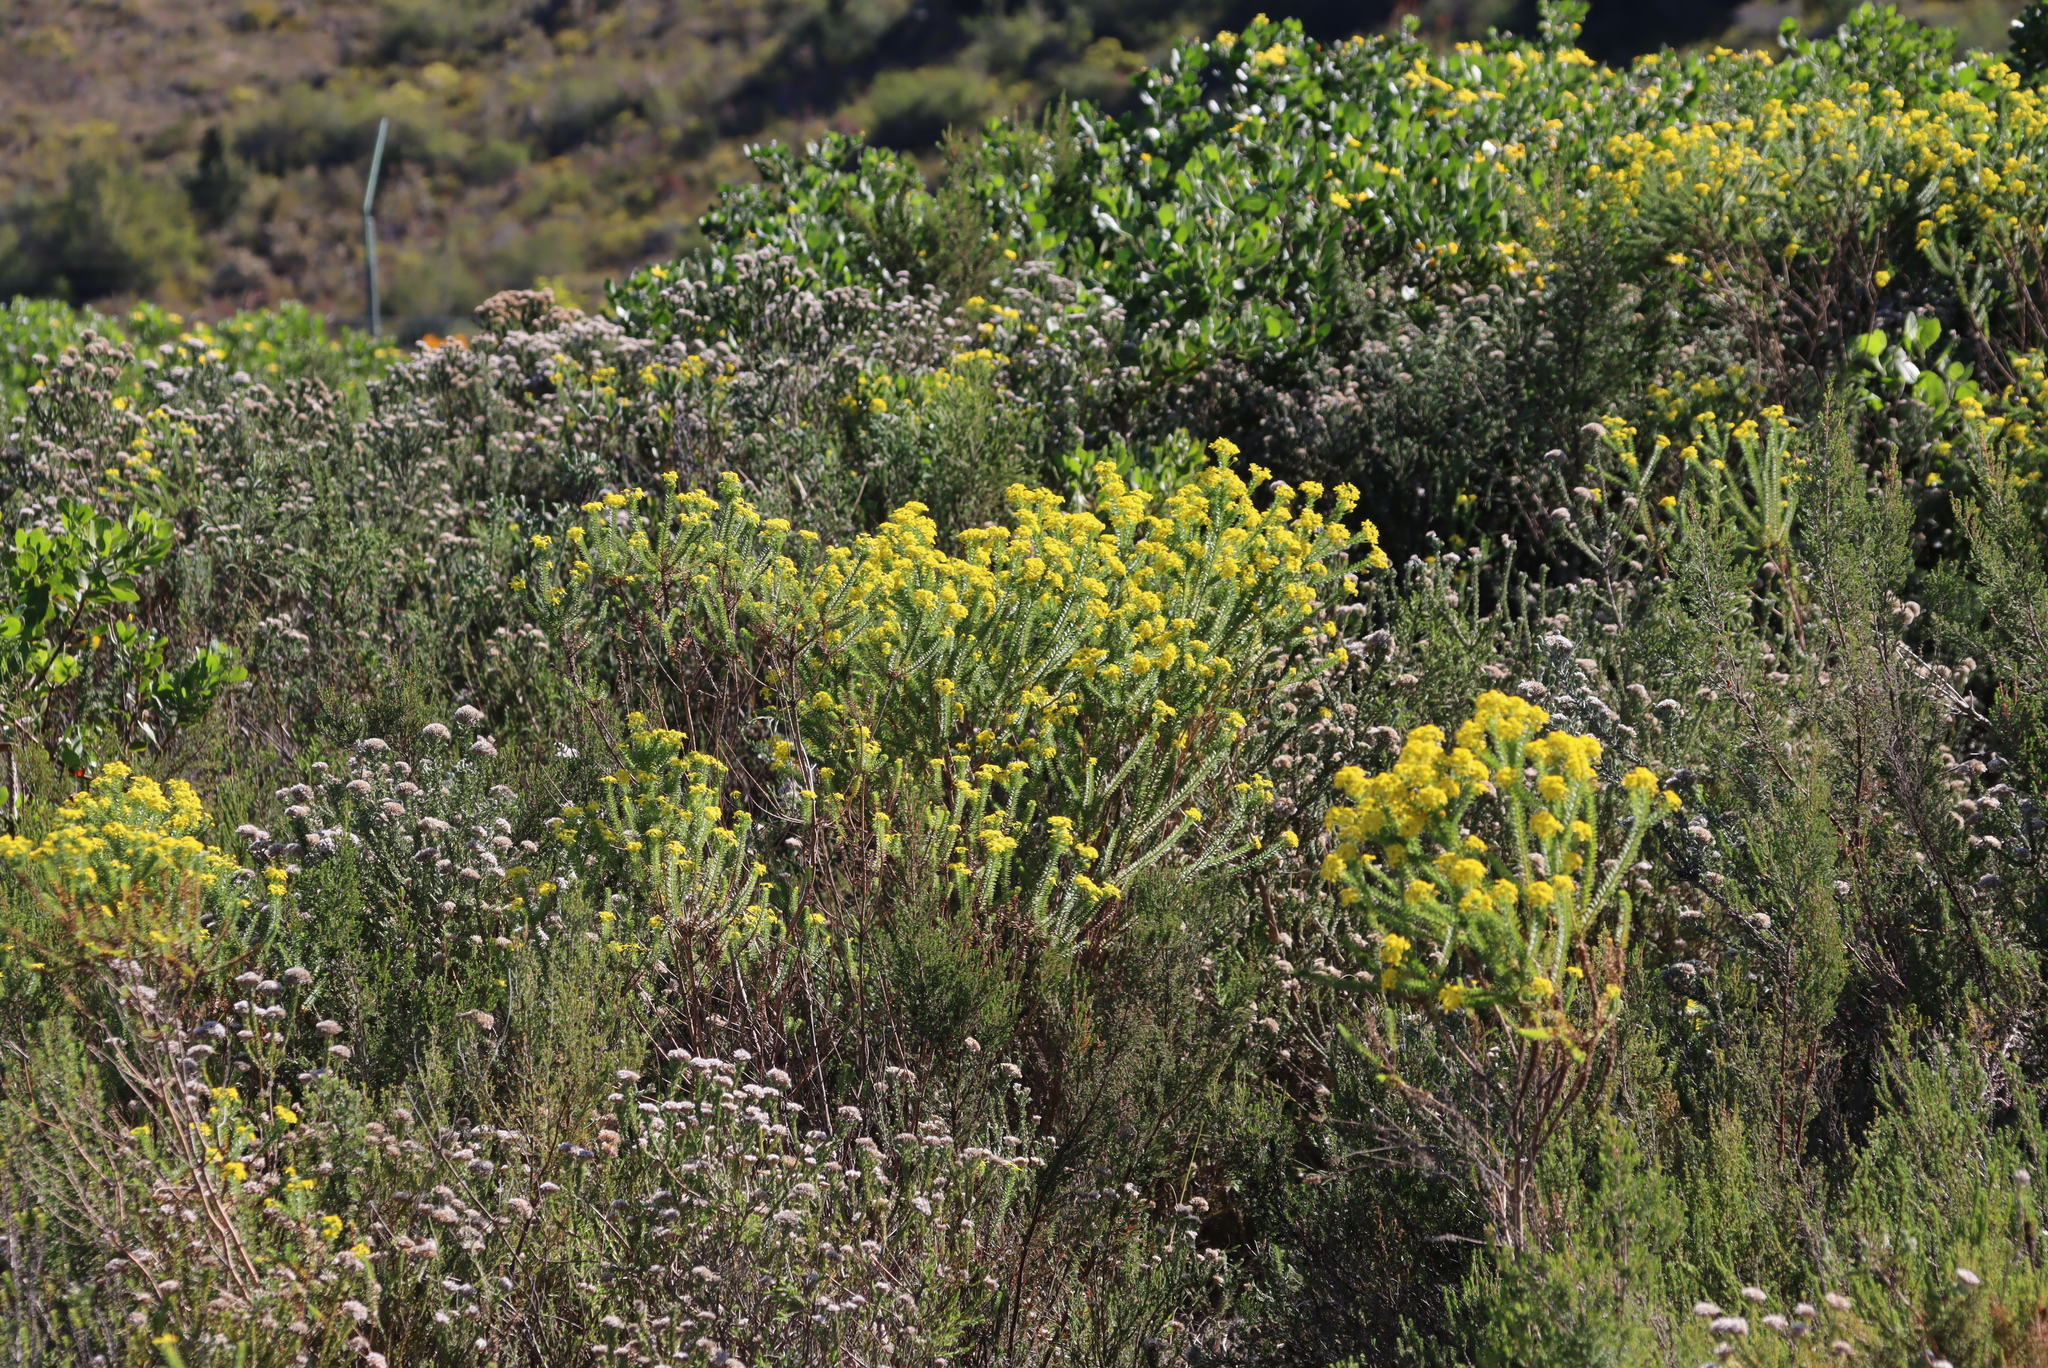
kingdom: Plantae
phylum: Tracheophyta
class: Magnoliopsida
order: Asterales
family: Asteraceae
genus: Euryops
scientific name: Euryops virgineus
